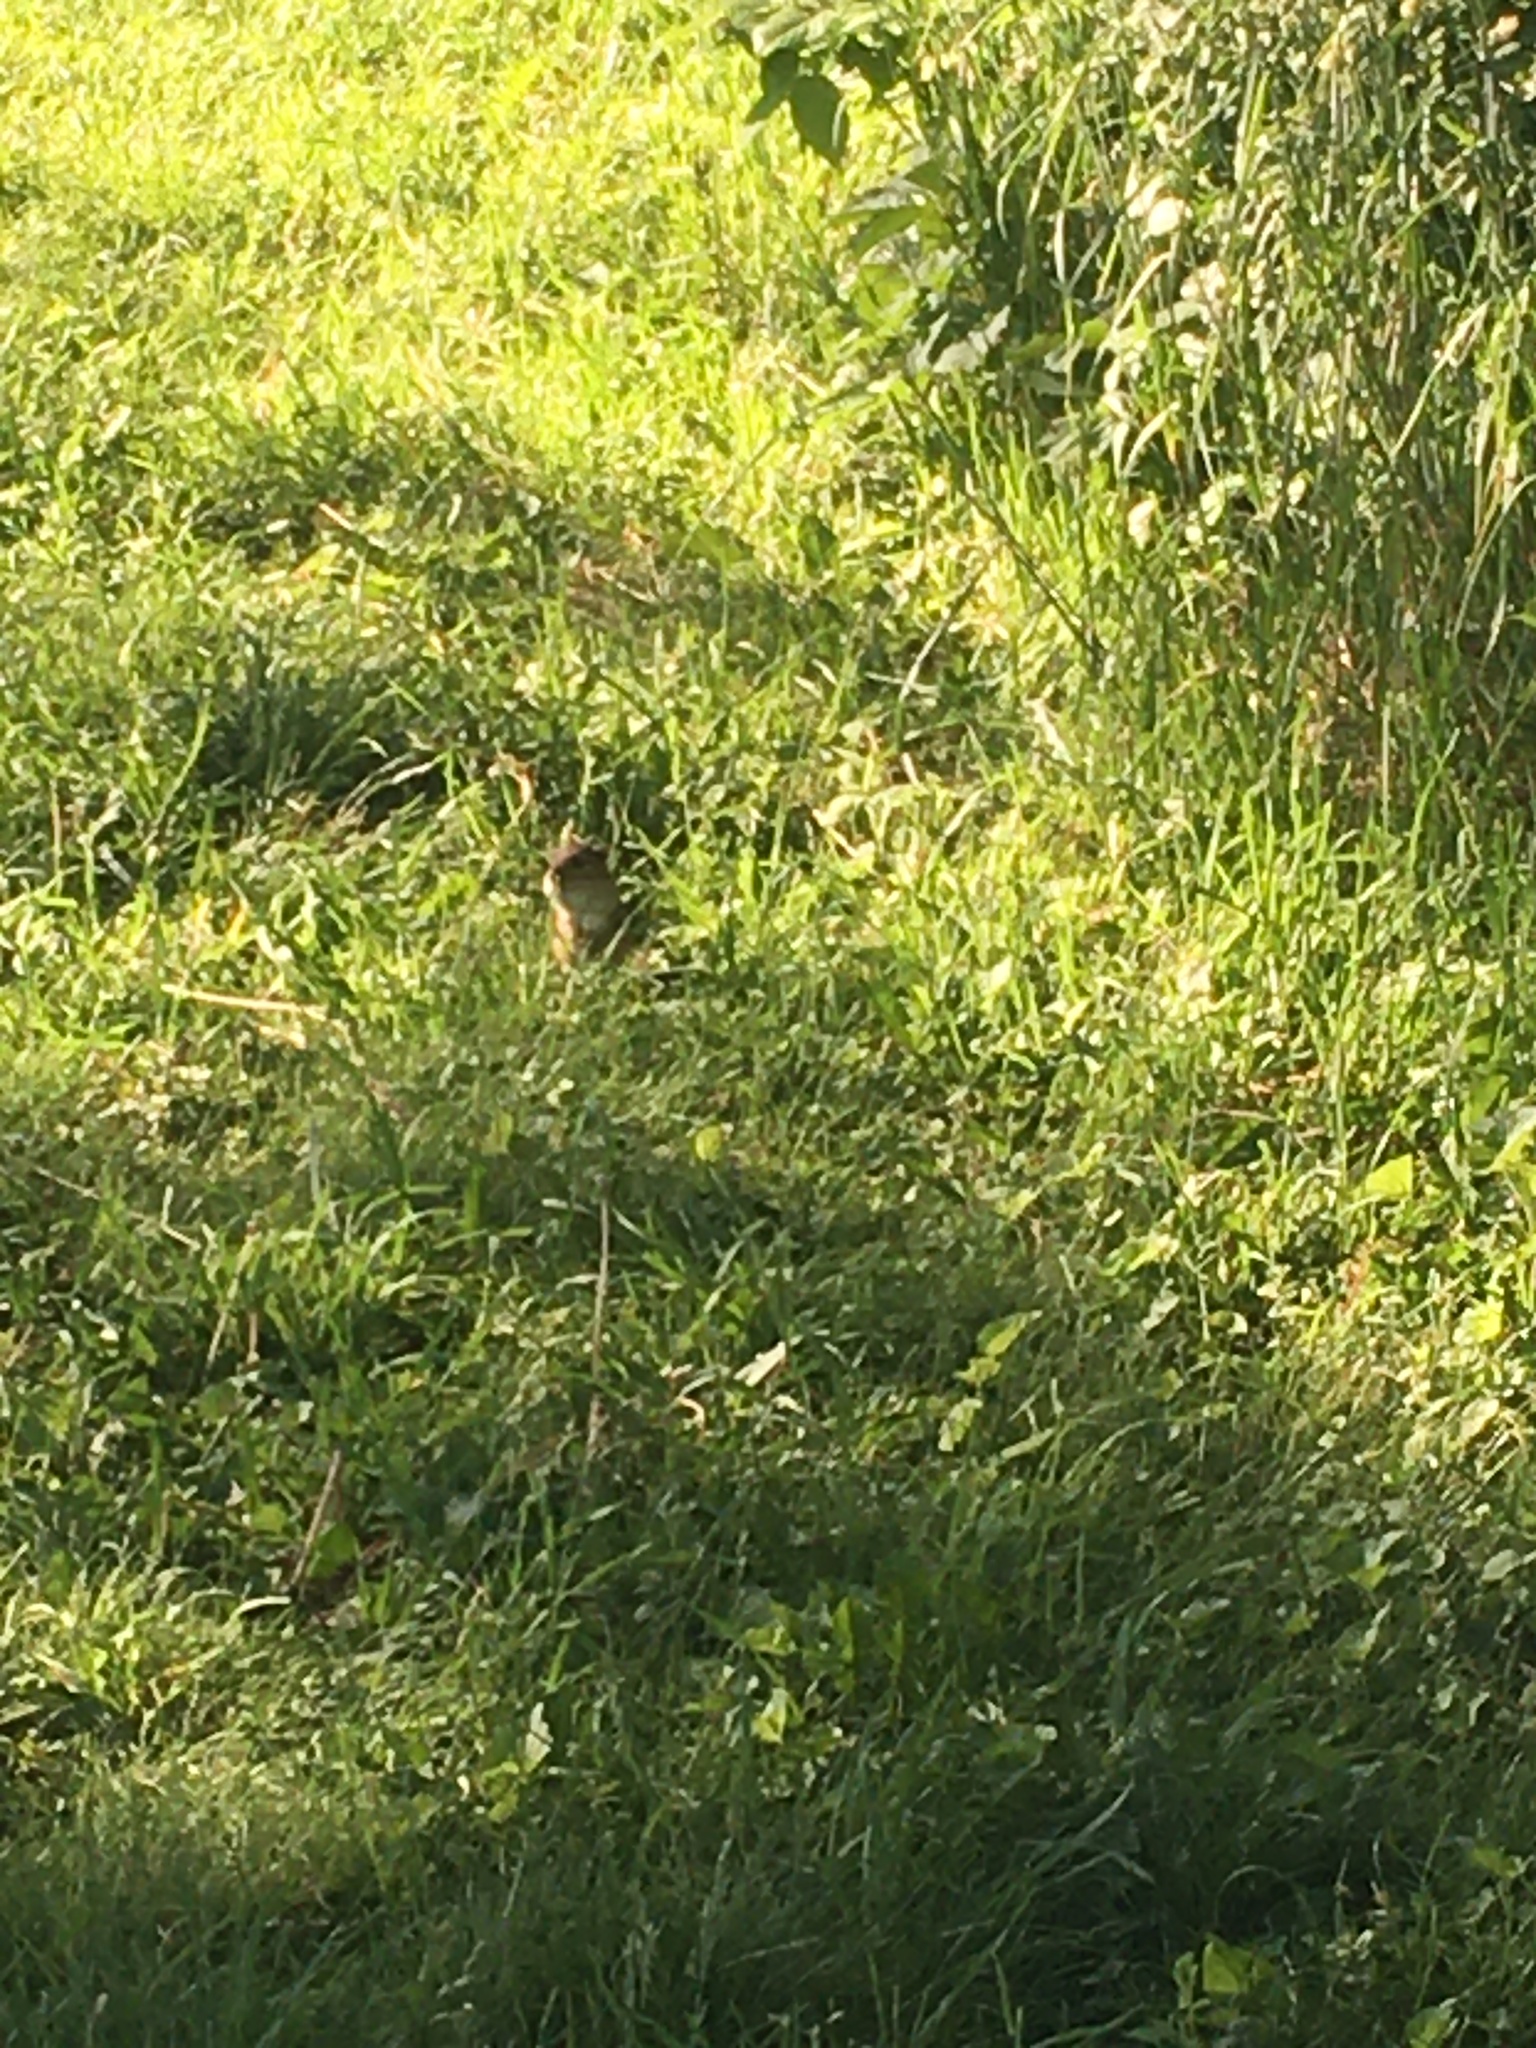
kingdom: Animalia
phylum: Chordata
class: Mammalia
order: Rodentia
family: Sciuridae
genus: Tamias
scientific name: Tamias striatus
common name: Eastern chipmunk
